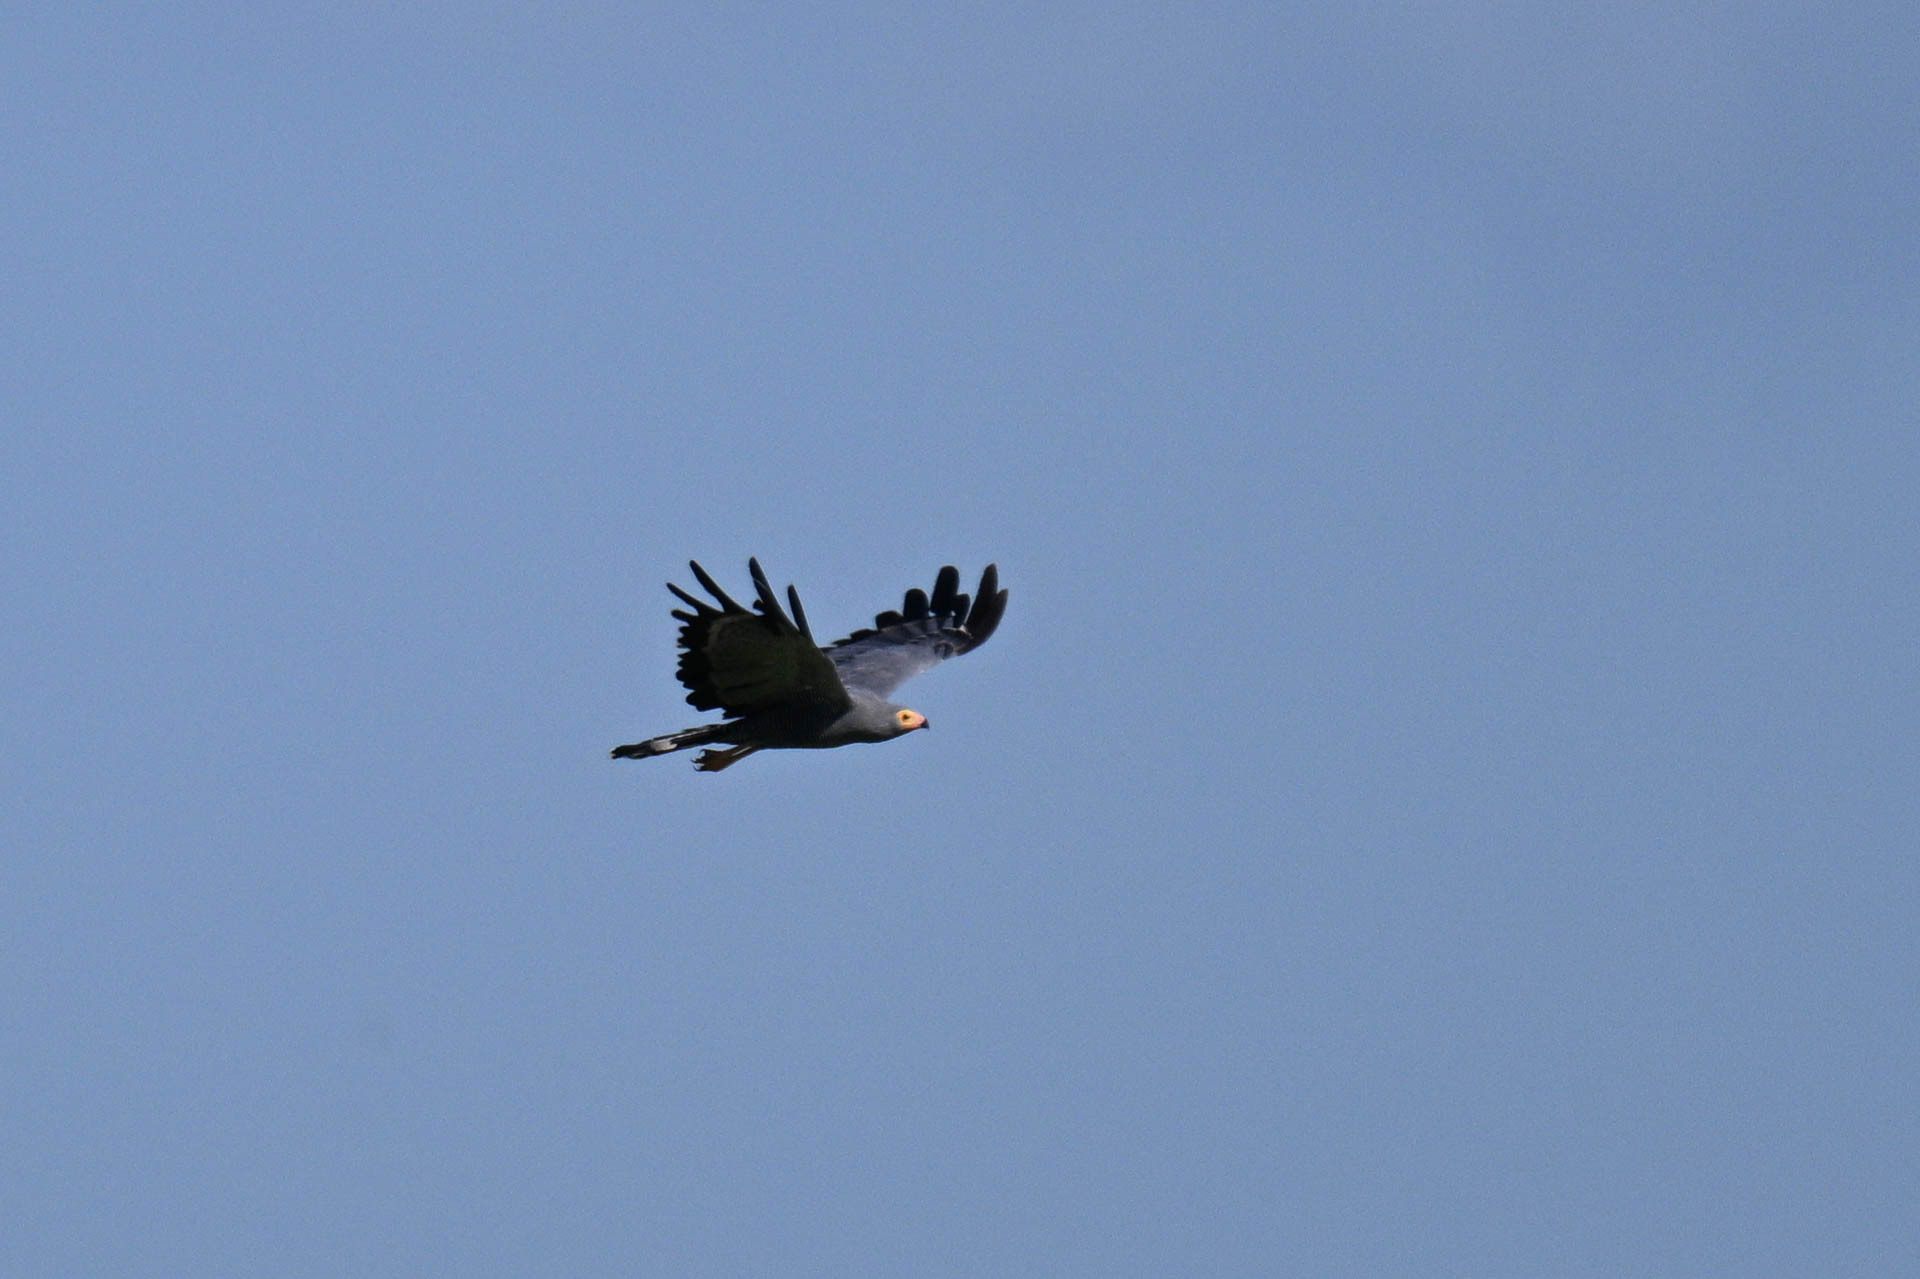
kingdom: Animalia
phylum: Chordata
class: Aves
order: Accipitriformes
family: Accipitridae
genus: Polyboroides
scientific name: Polyboroides typus
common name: African harrier-hawk
